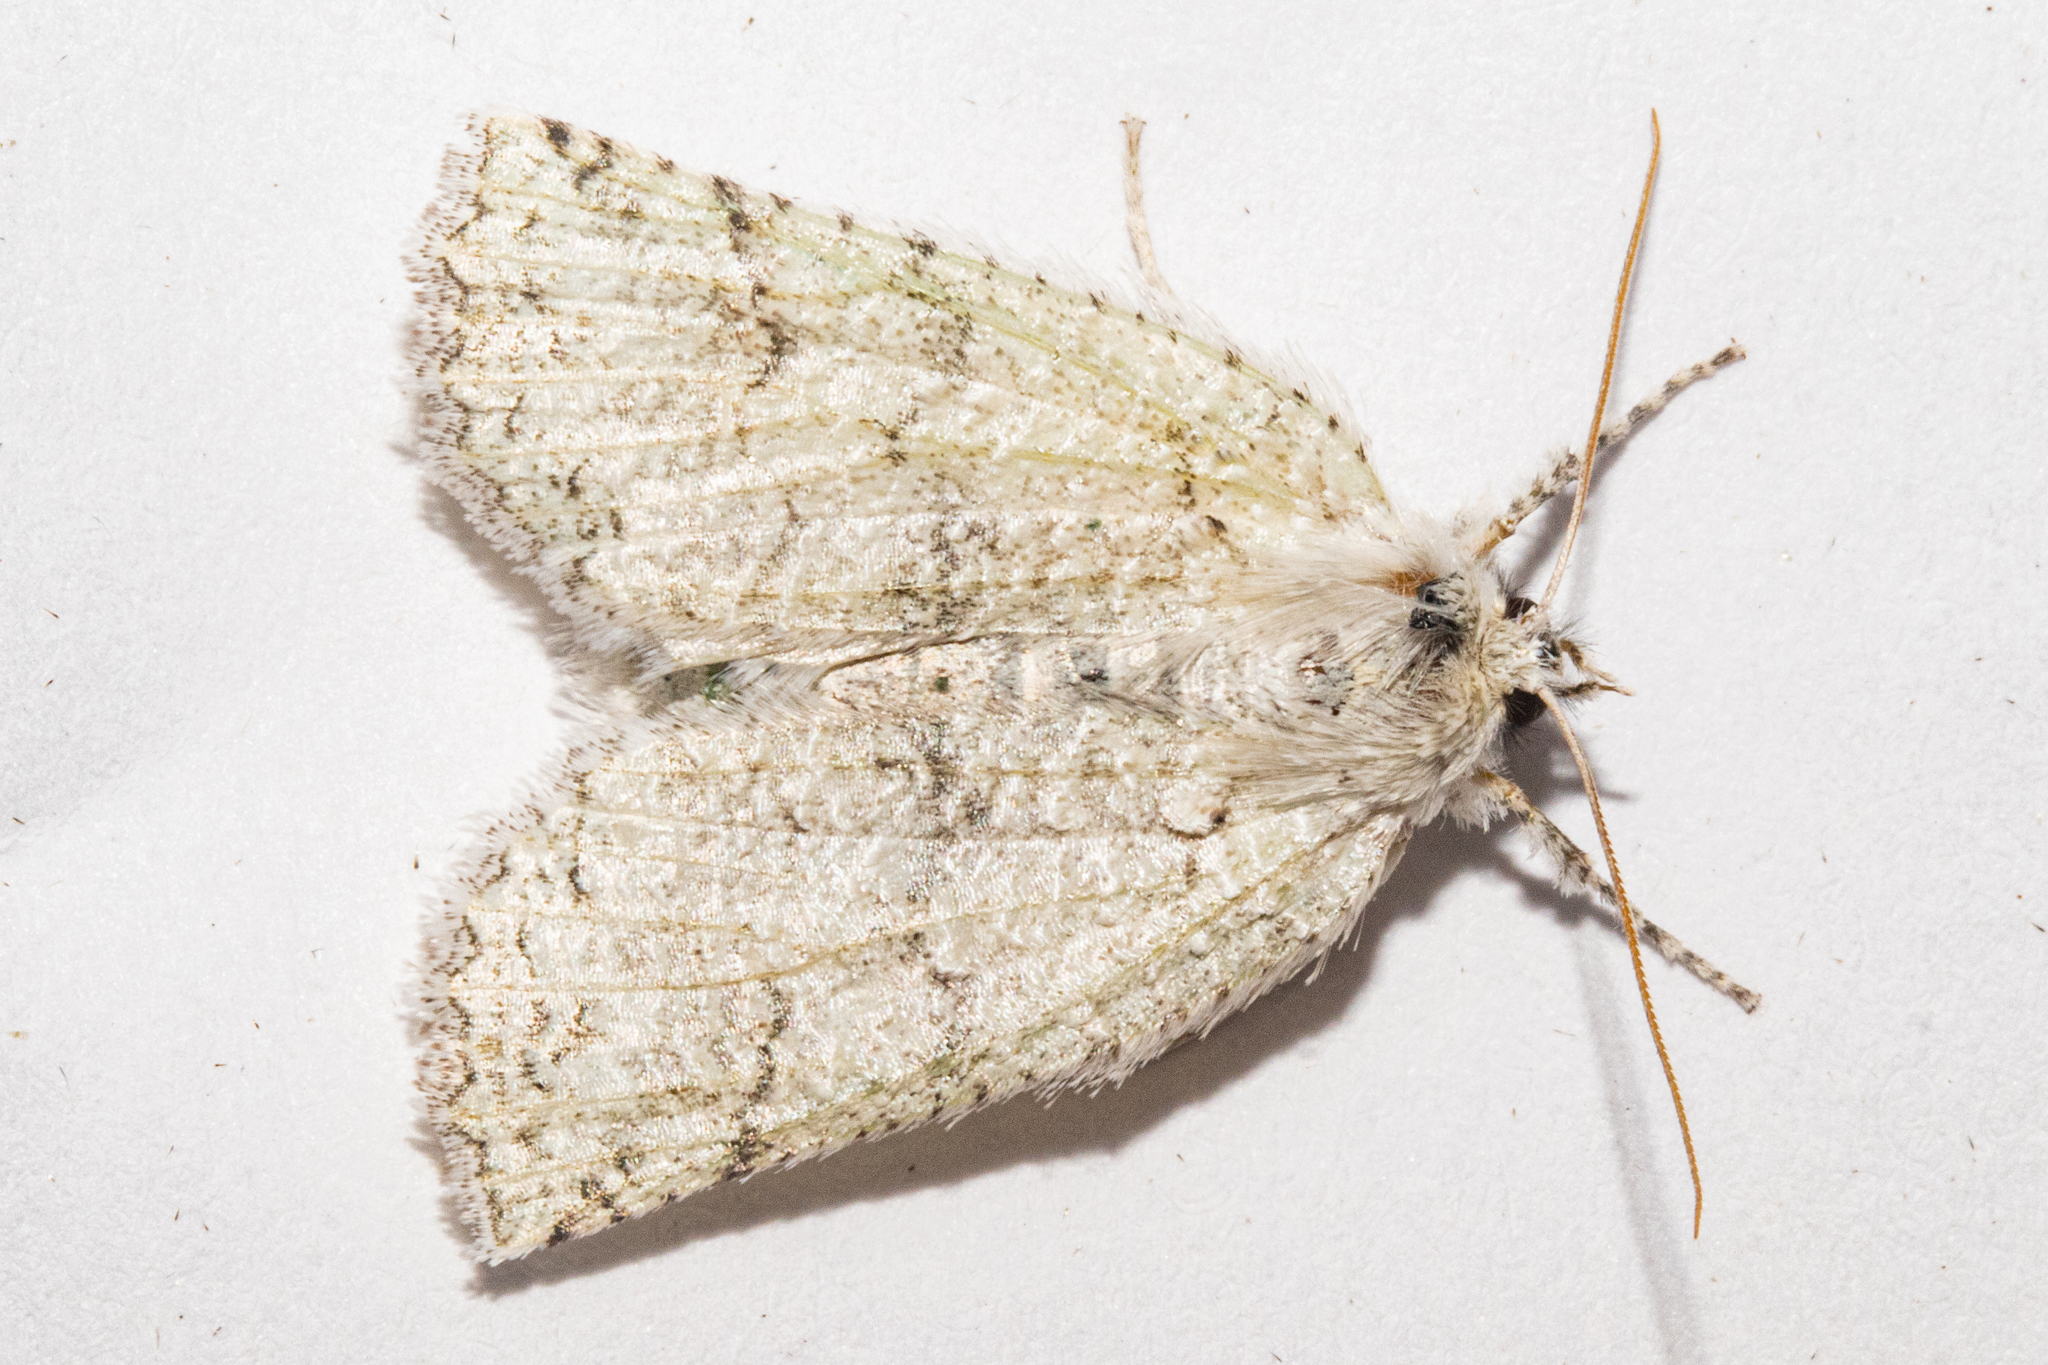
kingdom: Animalia
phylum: Arthropoda
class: Insecta
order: Lepidoptera
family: Geometridae
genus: Declana
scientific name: Declana floccosa
